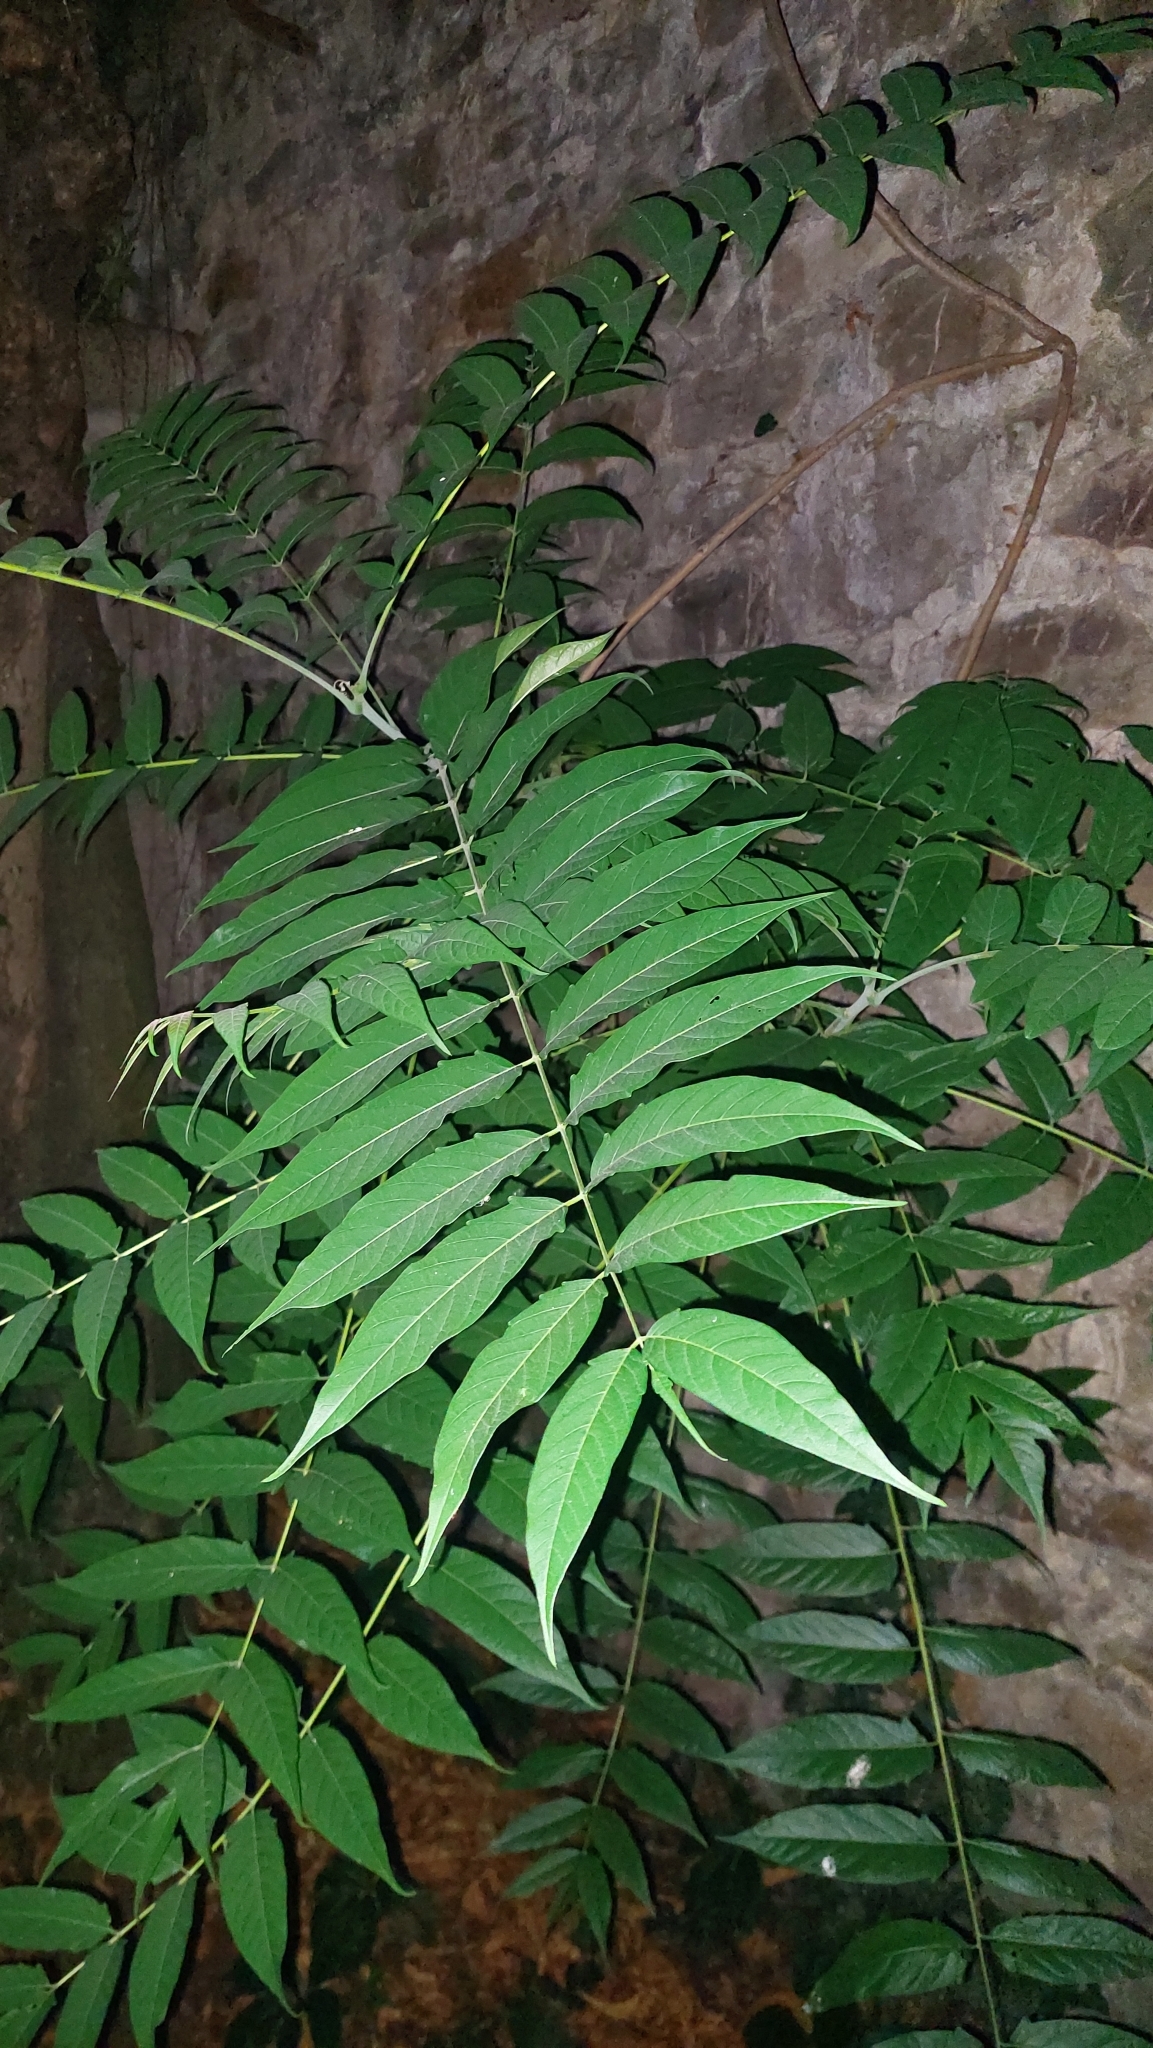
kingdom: Plantae
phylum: Tracheophyta
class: Magnoliopsida
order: Sapindales
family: Simaroubaceae
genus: Ailanthus
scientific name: Ailanthus altissima
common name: Tree-of-heaven
